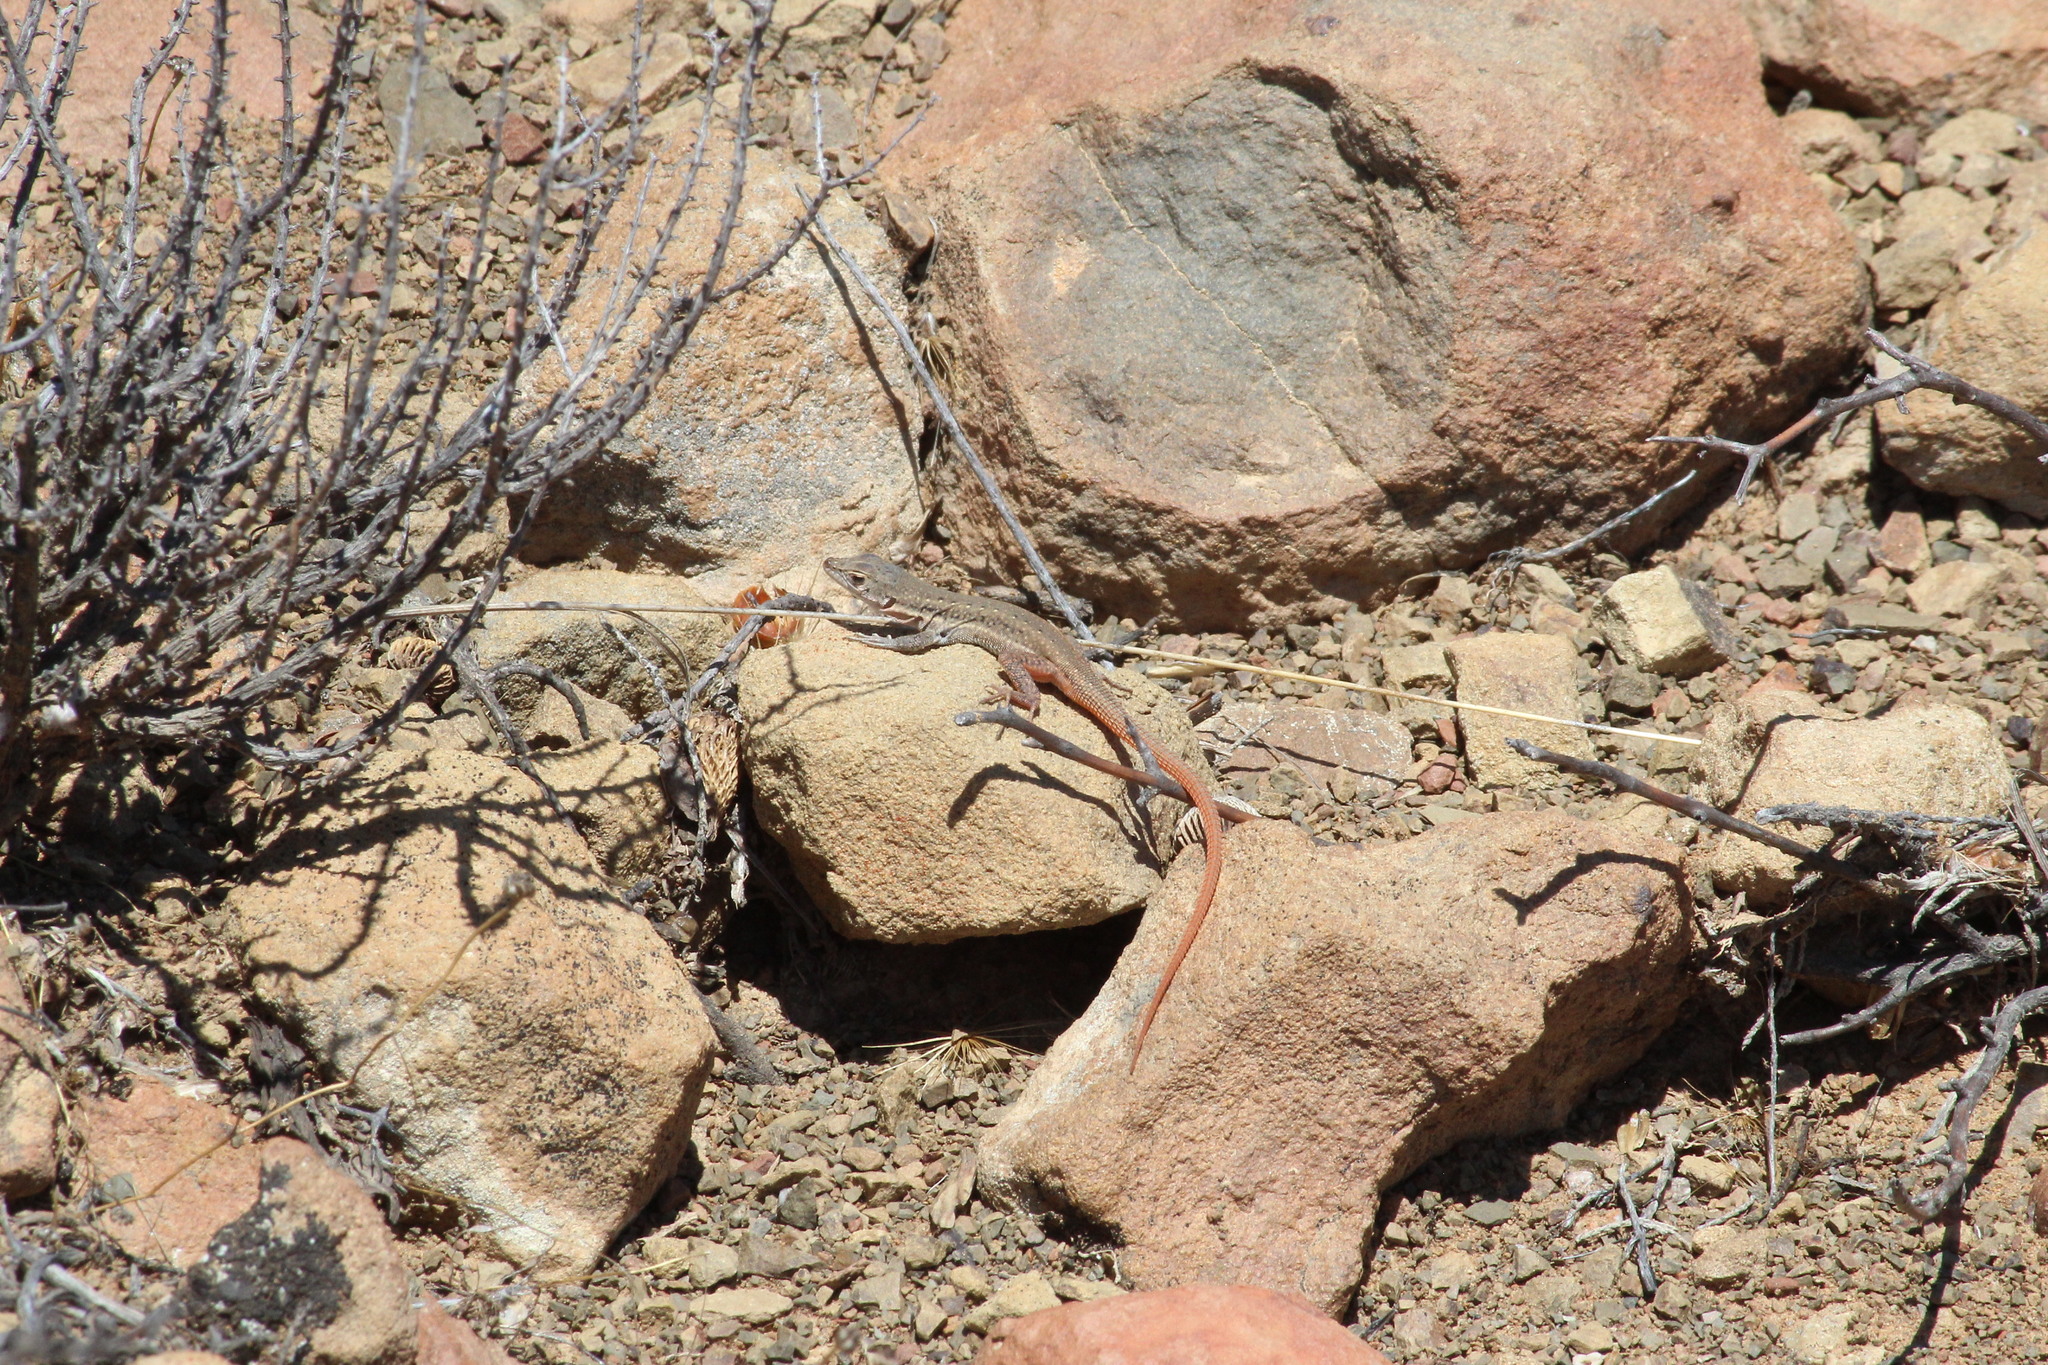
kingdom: Animalia
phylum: Chordata
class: Squamata
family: Lacertidae
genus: Pedioplanis
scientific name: Pedioplanis lineoocellata
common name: Spotted sand lizard
